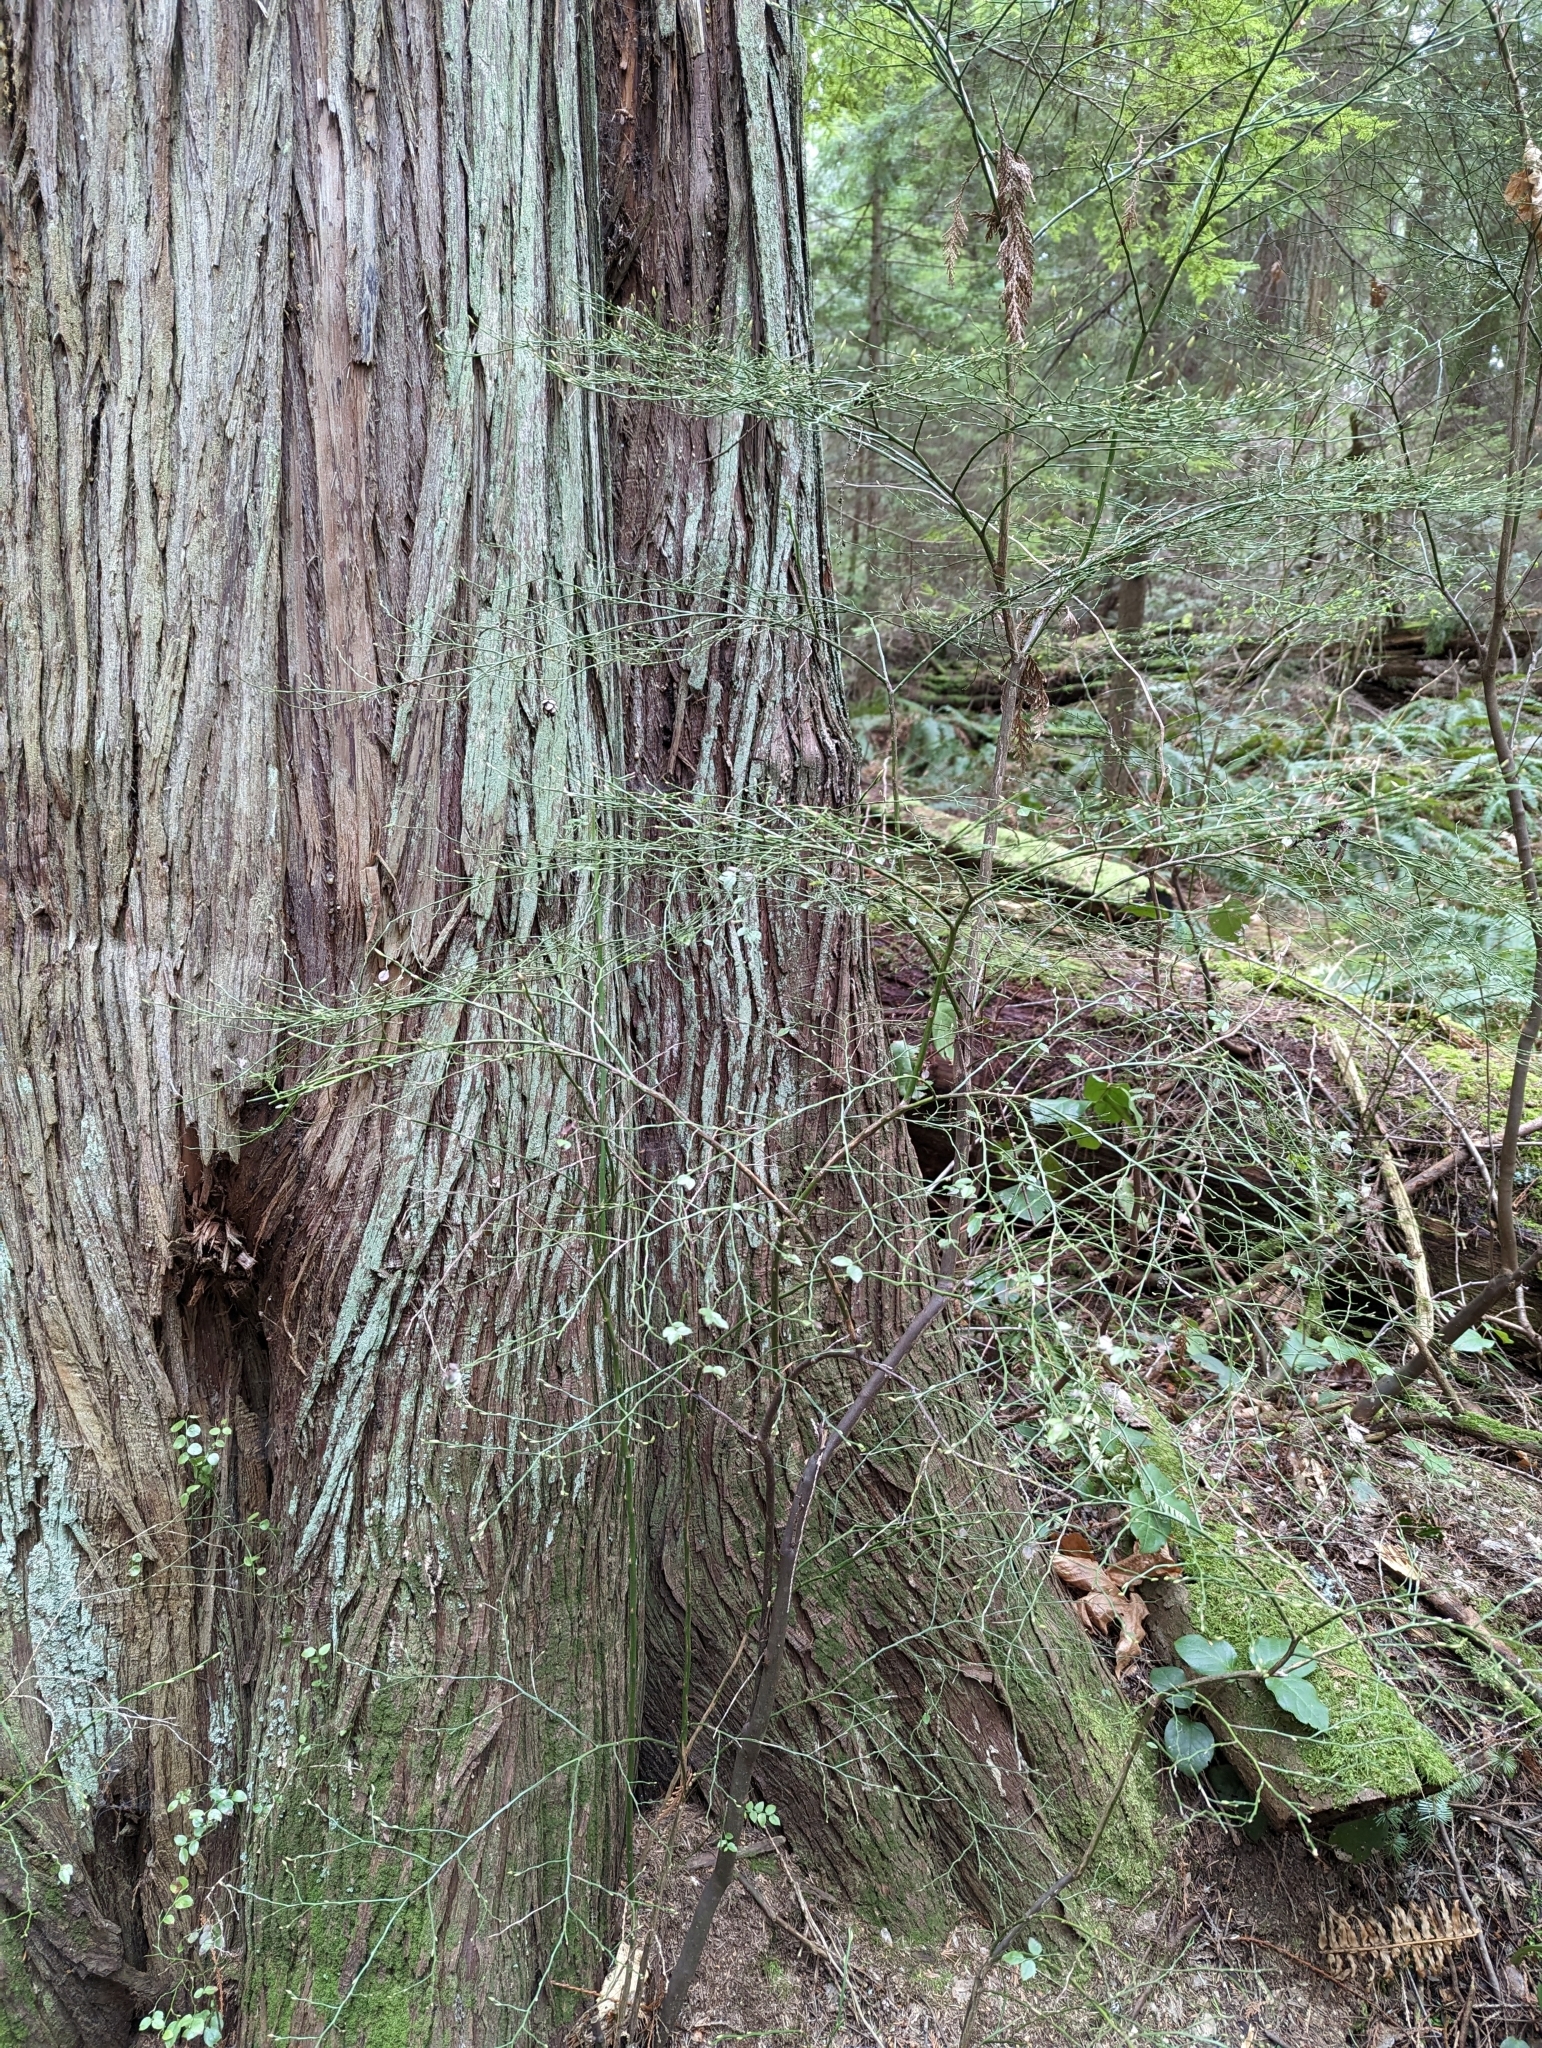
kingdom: Plantae
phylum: Tracheophyta
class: Magnoliopsida
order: Ericales
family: Ericaceae
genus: Vaccinium
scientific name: Vaccinium parvifolium
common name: Red-huckleberry
